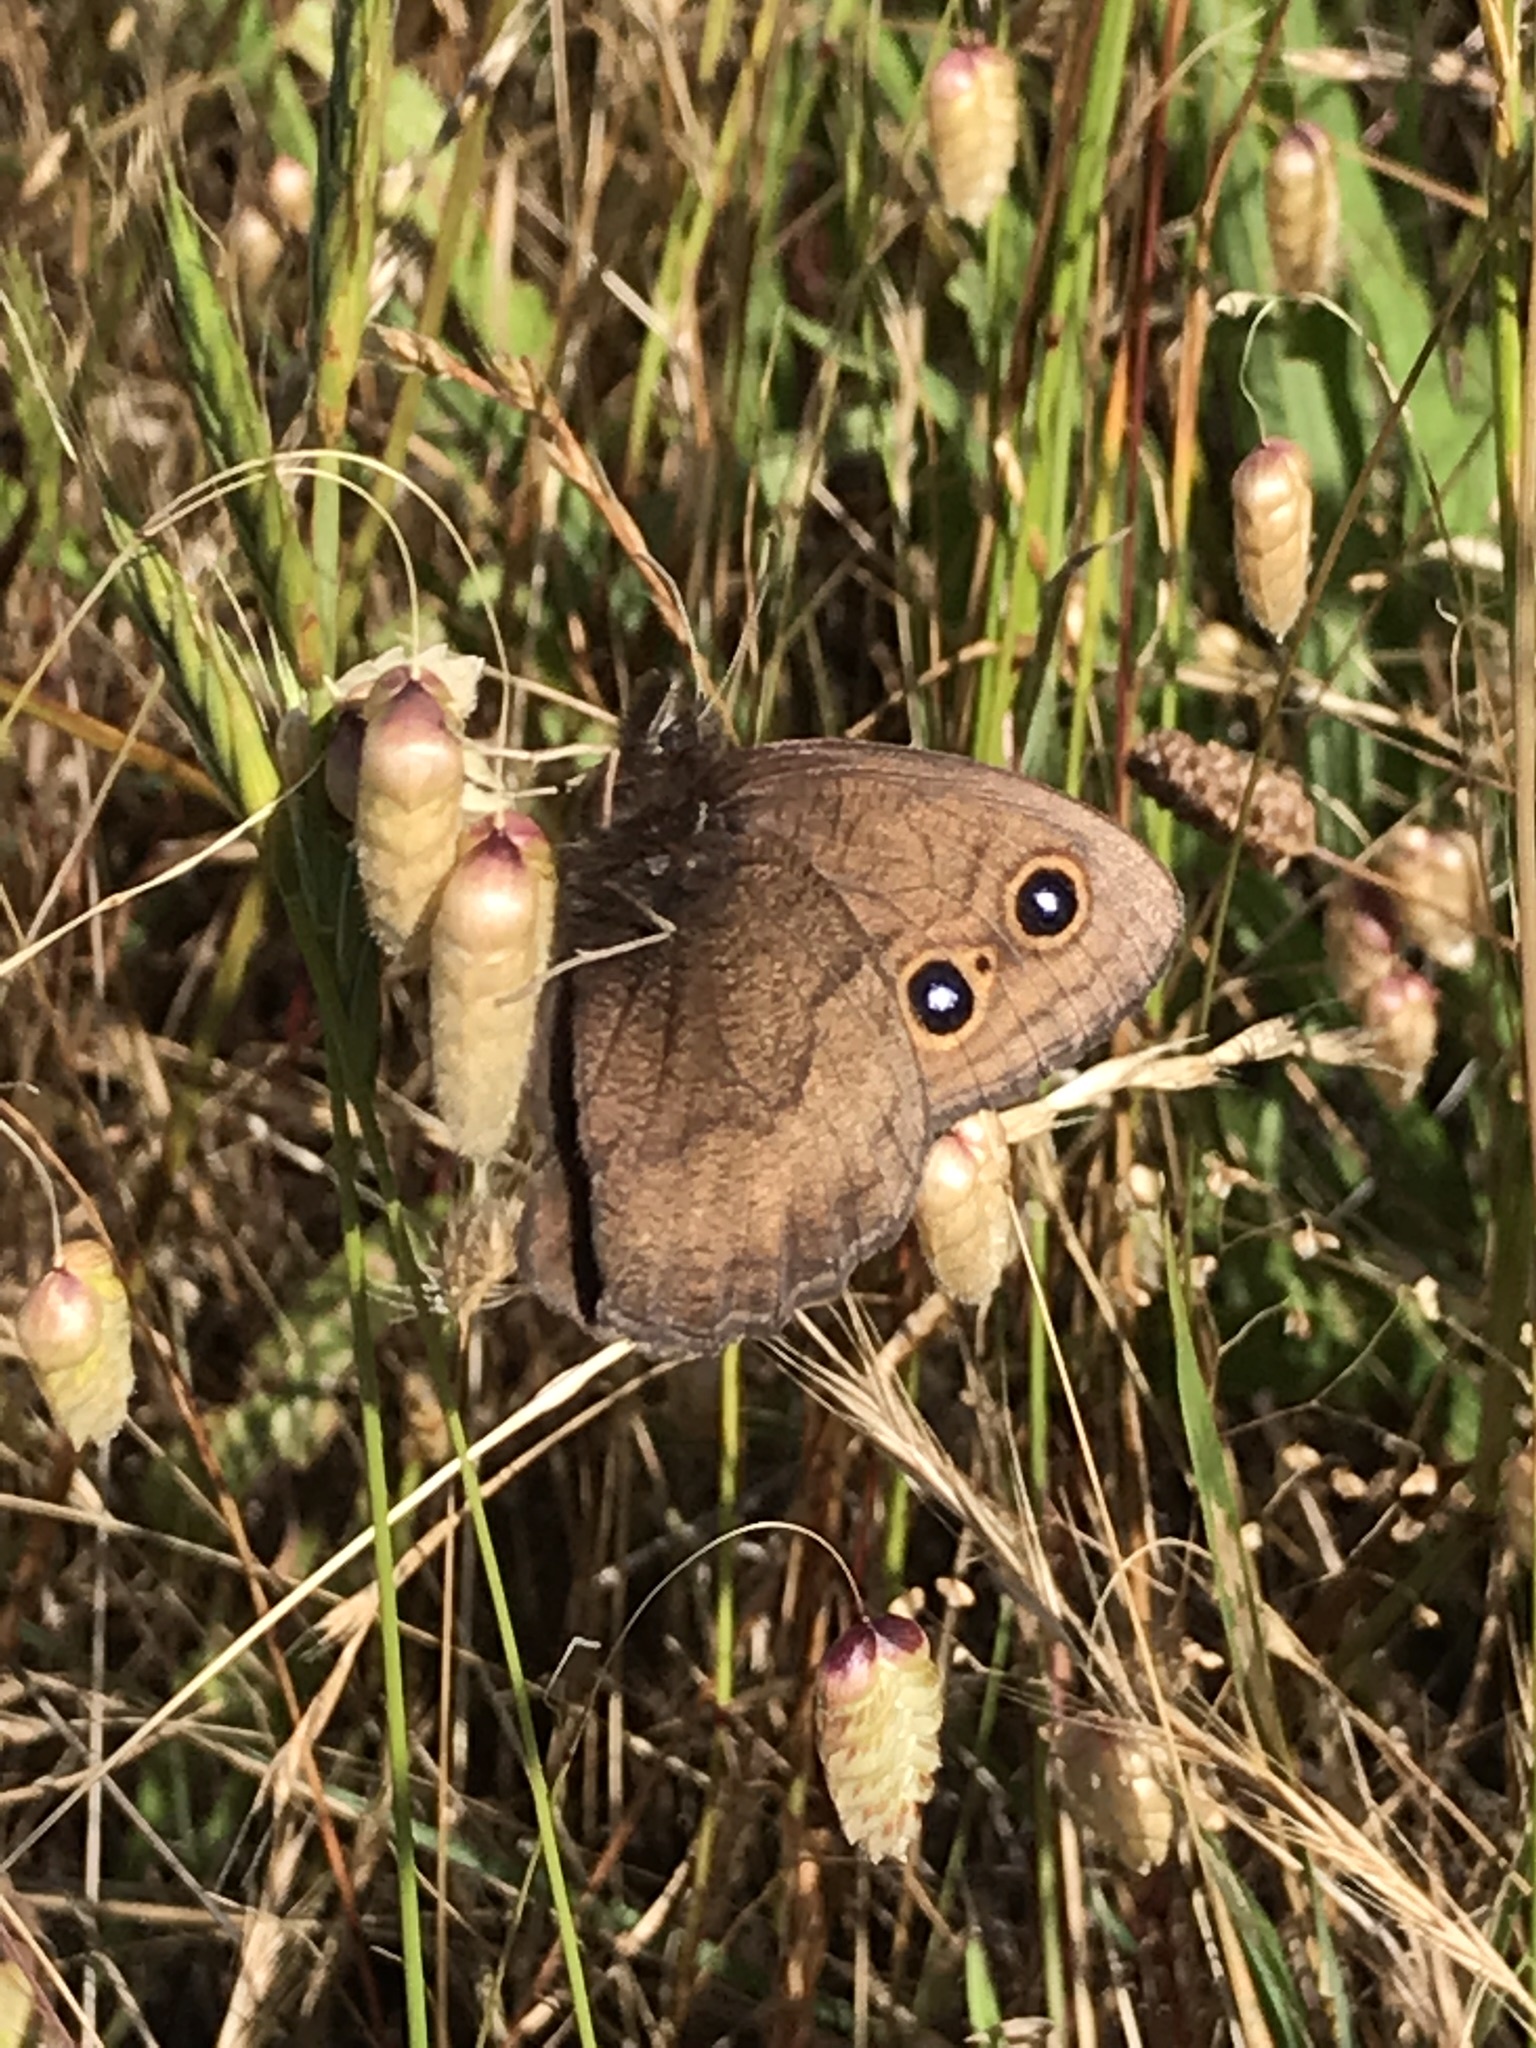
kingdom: Animalia
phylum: Arthropoda
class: Insecta
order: Lepidoptera
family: Nymphalidae
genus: Cercyonis
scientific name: Cercyonis sthenele
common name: Great basin wood-nymph
